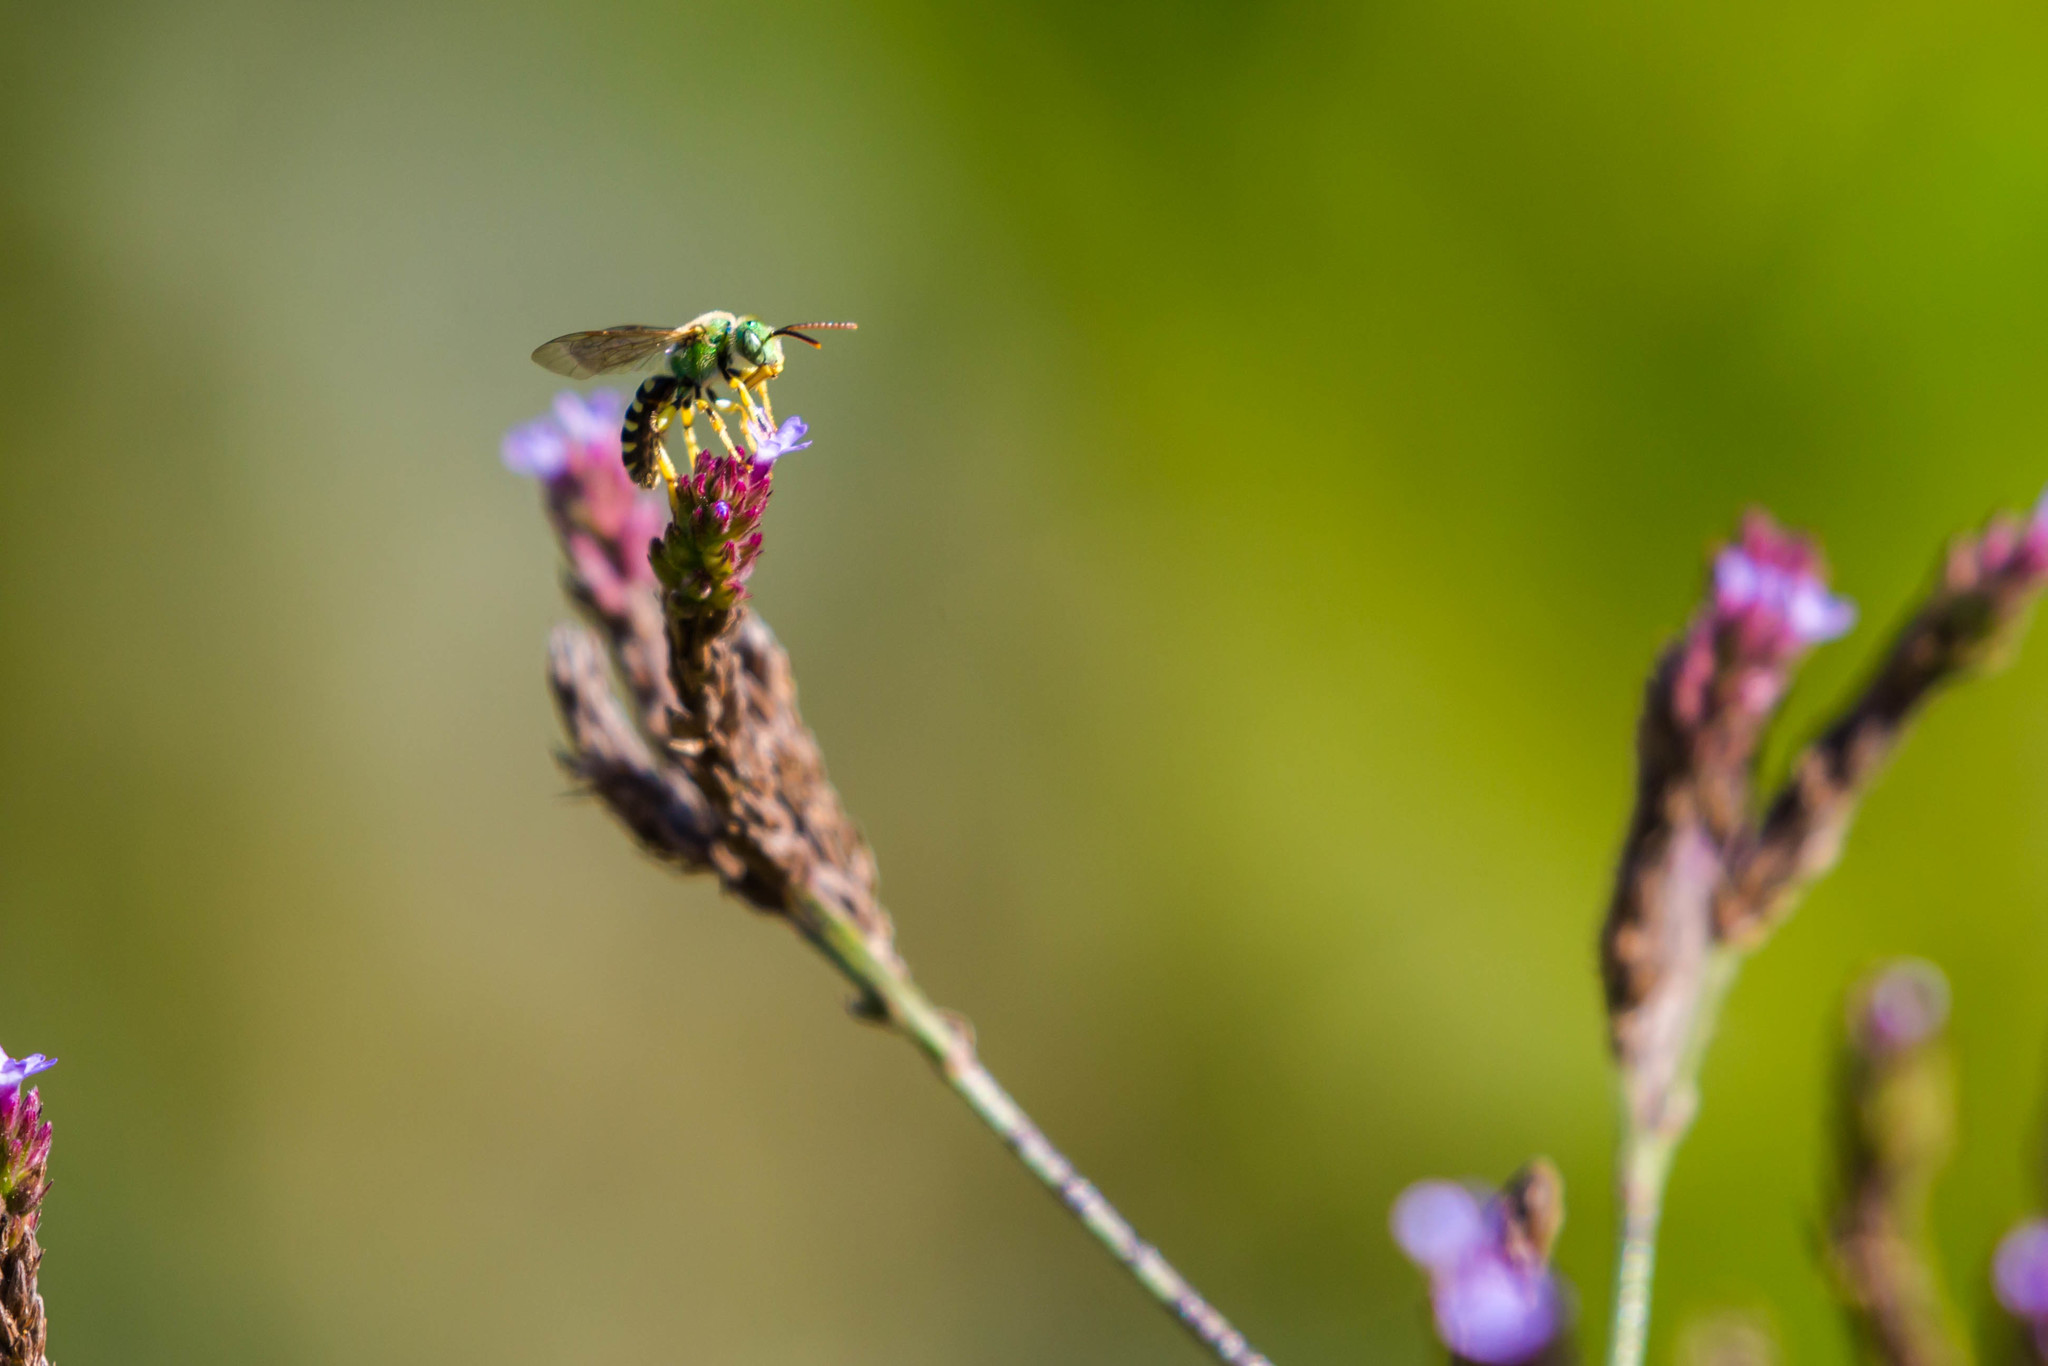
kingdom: Animalia
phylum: Arthropoda
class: Insecta
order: Hymenoptera
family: Halictidae
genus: Agapostemon
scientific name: Agapostemon virescens
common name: Bicolored striped sweat bee
